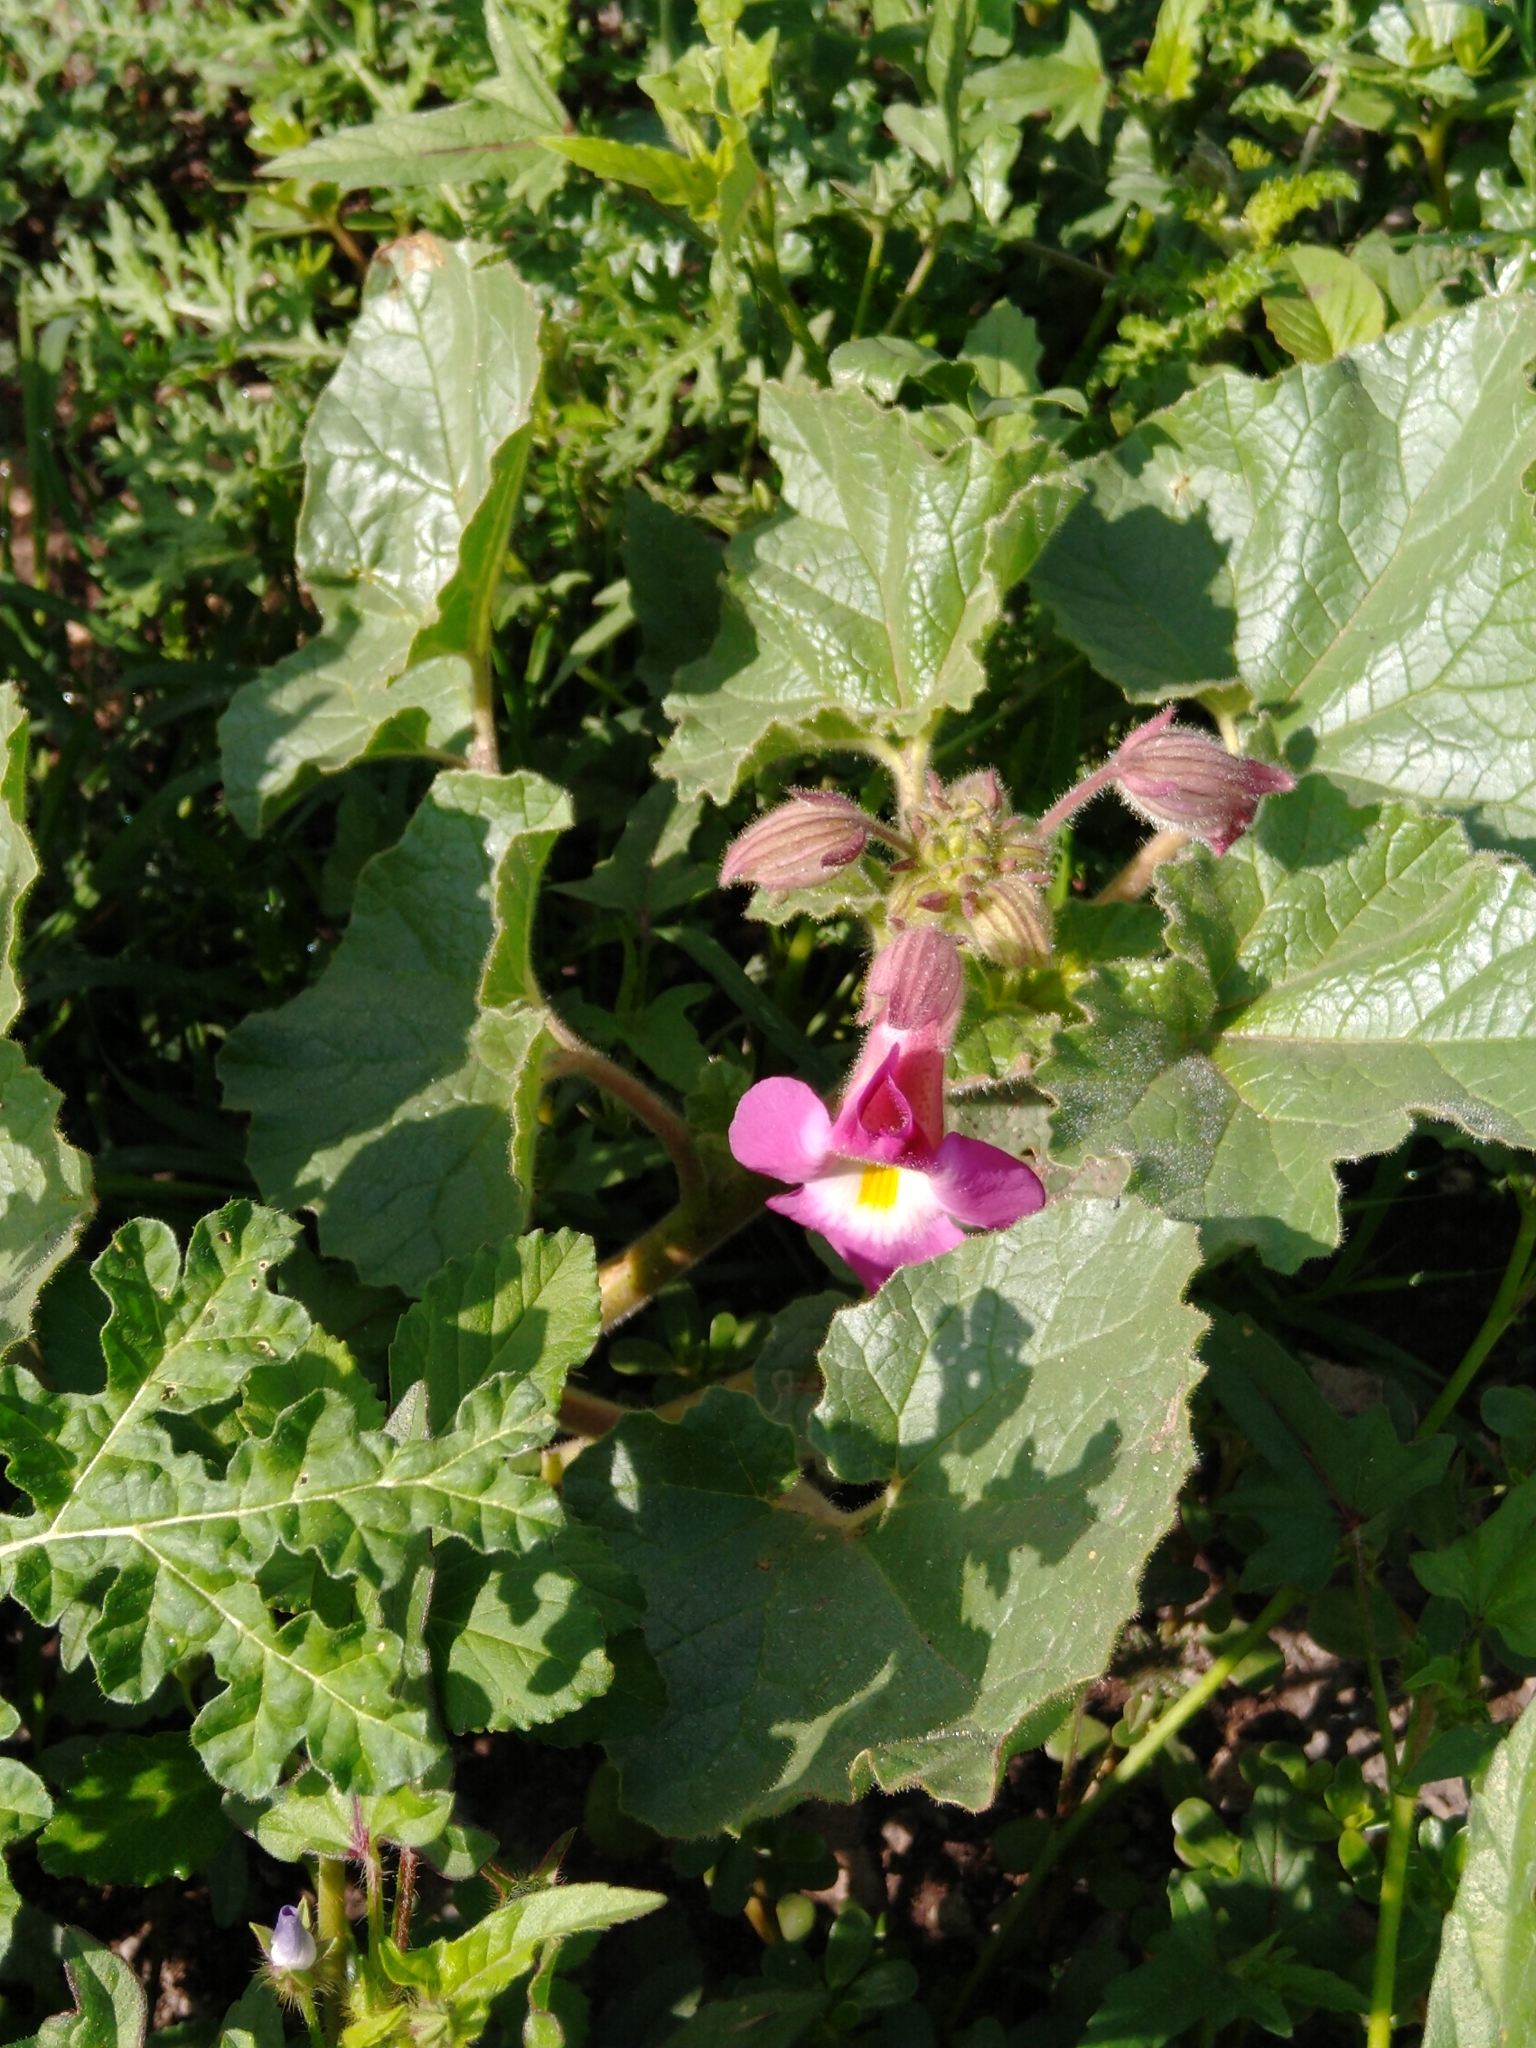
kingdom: Plantae
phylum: Tracheophyta
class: Magnoliopsida
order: Lamiales
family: Martyniaceae
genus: Proboscidea
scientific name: Proboscidea louisianica
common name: Elephant tusks
